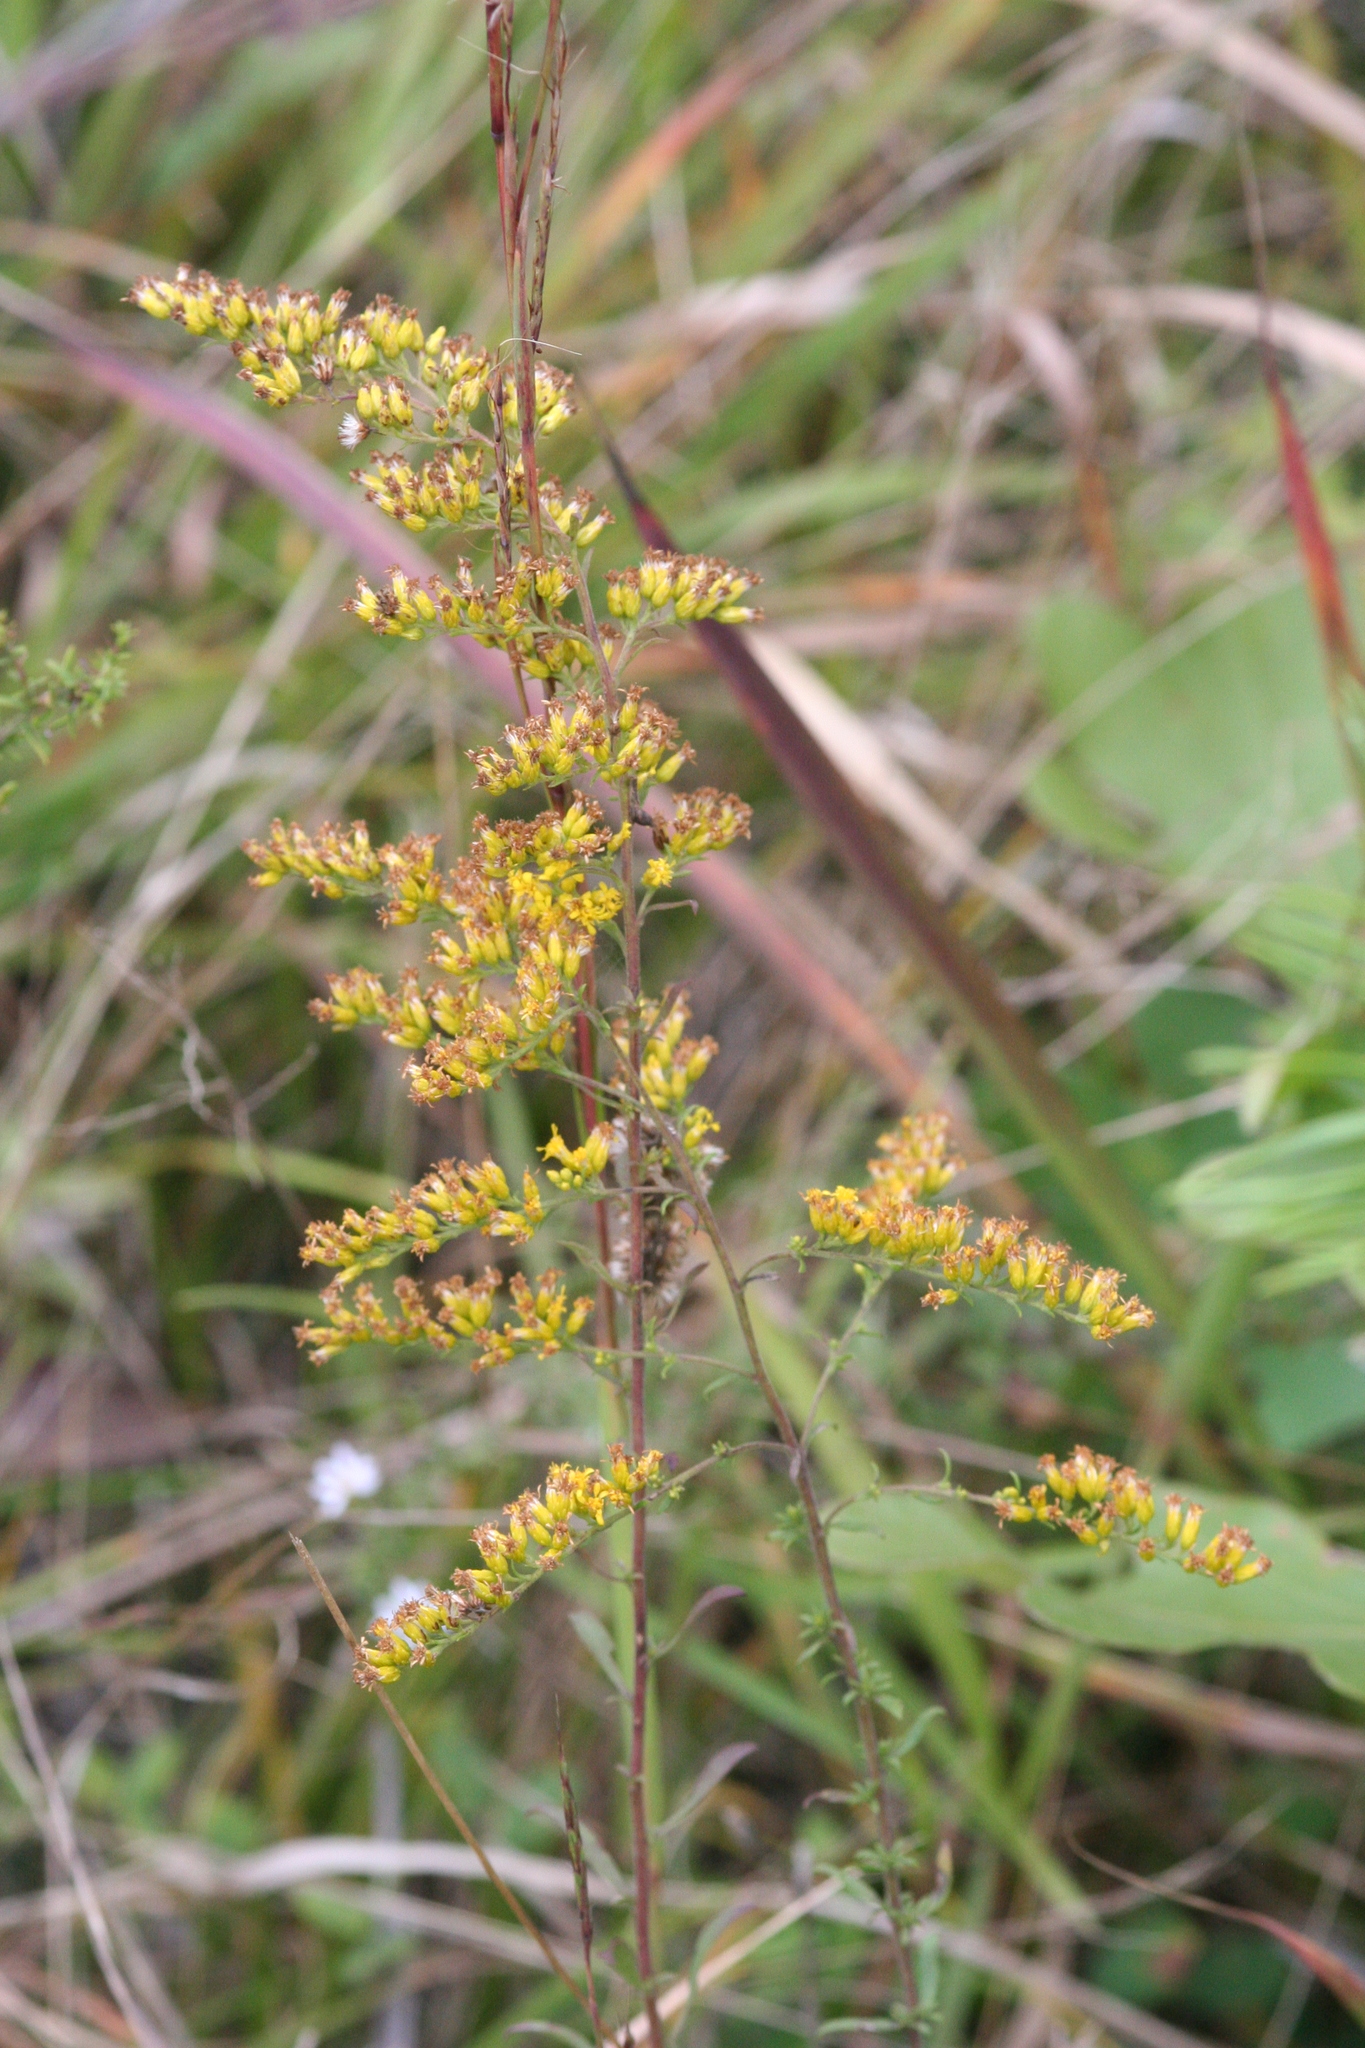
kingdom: Plantae
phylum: Tracheophyta
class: Magnoliopsida
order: Asterales
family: Asteraceae
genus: Solidago
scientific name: Solidago nemoralis
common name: Grey goldenrod
